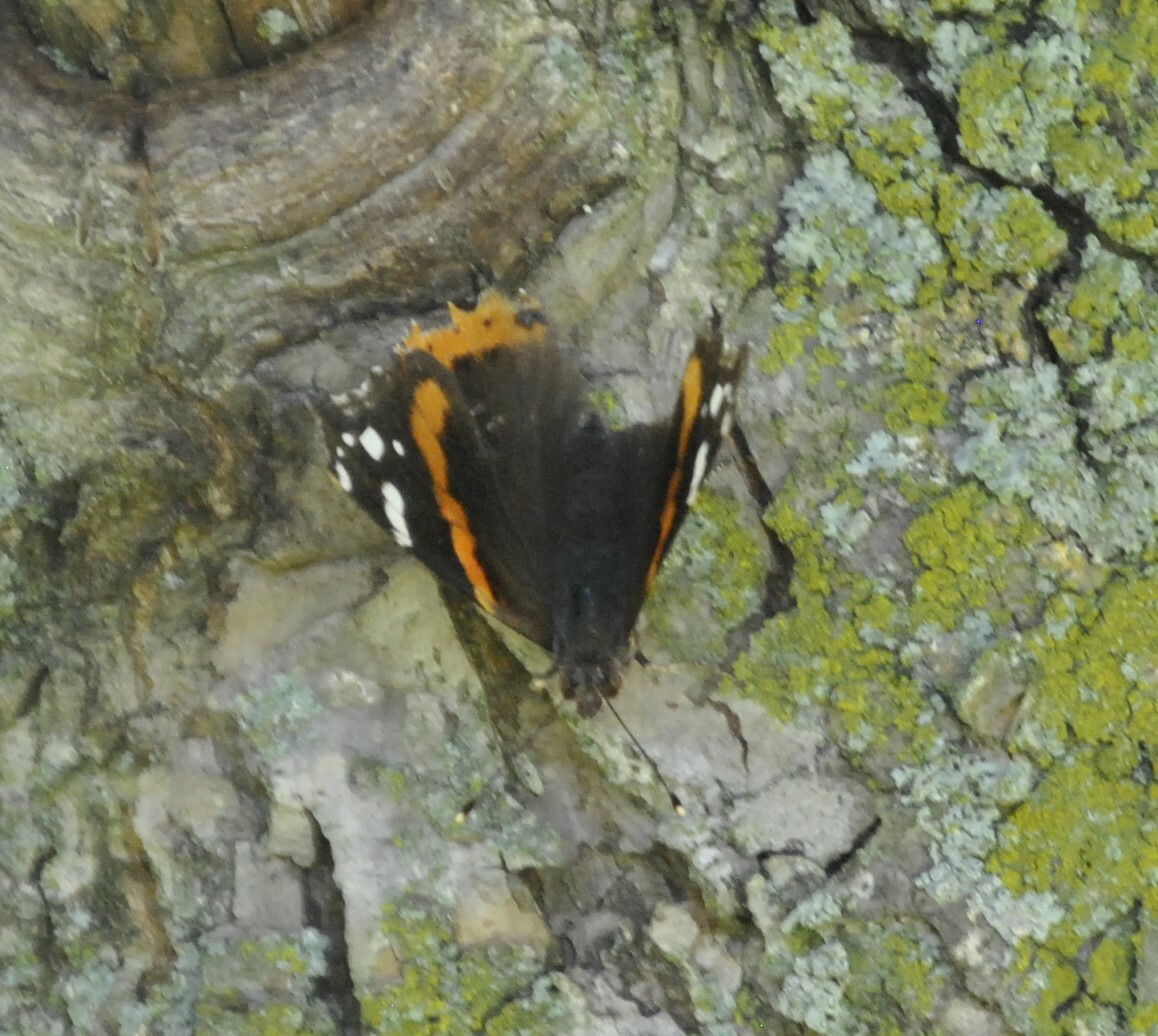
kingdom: Animalia
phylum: Arthropoda
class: Insecta
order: Lepidoptera
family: Nymphalidae
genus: Vanessa
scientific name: Vanessa atalanta
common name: Red admiral
